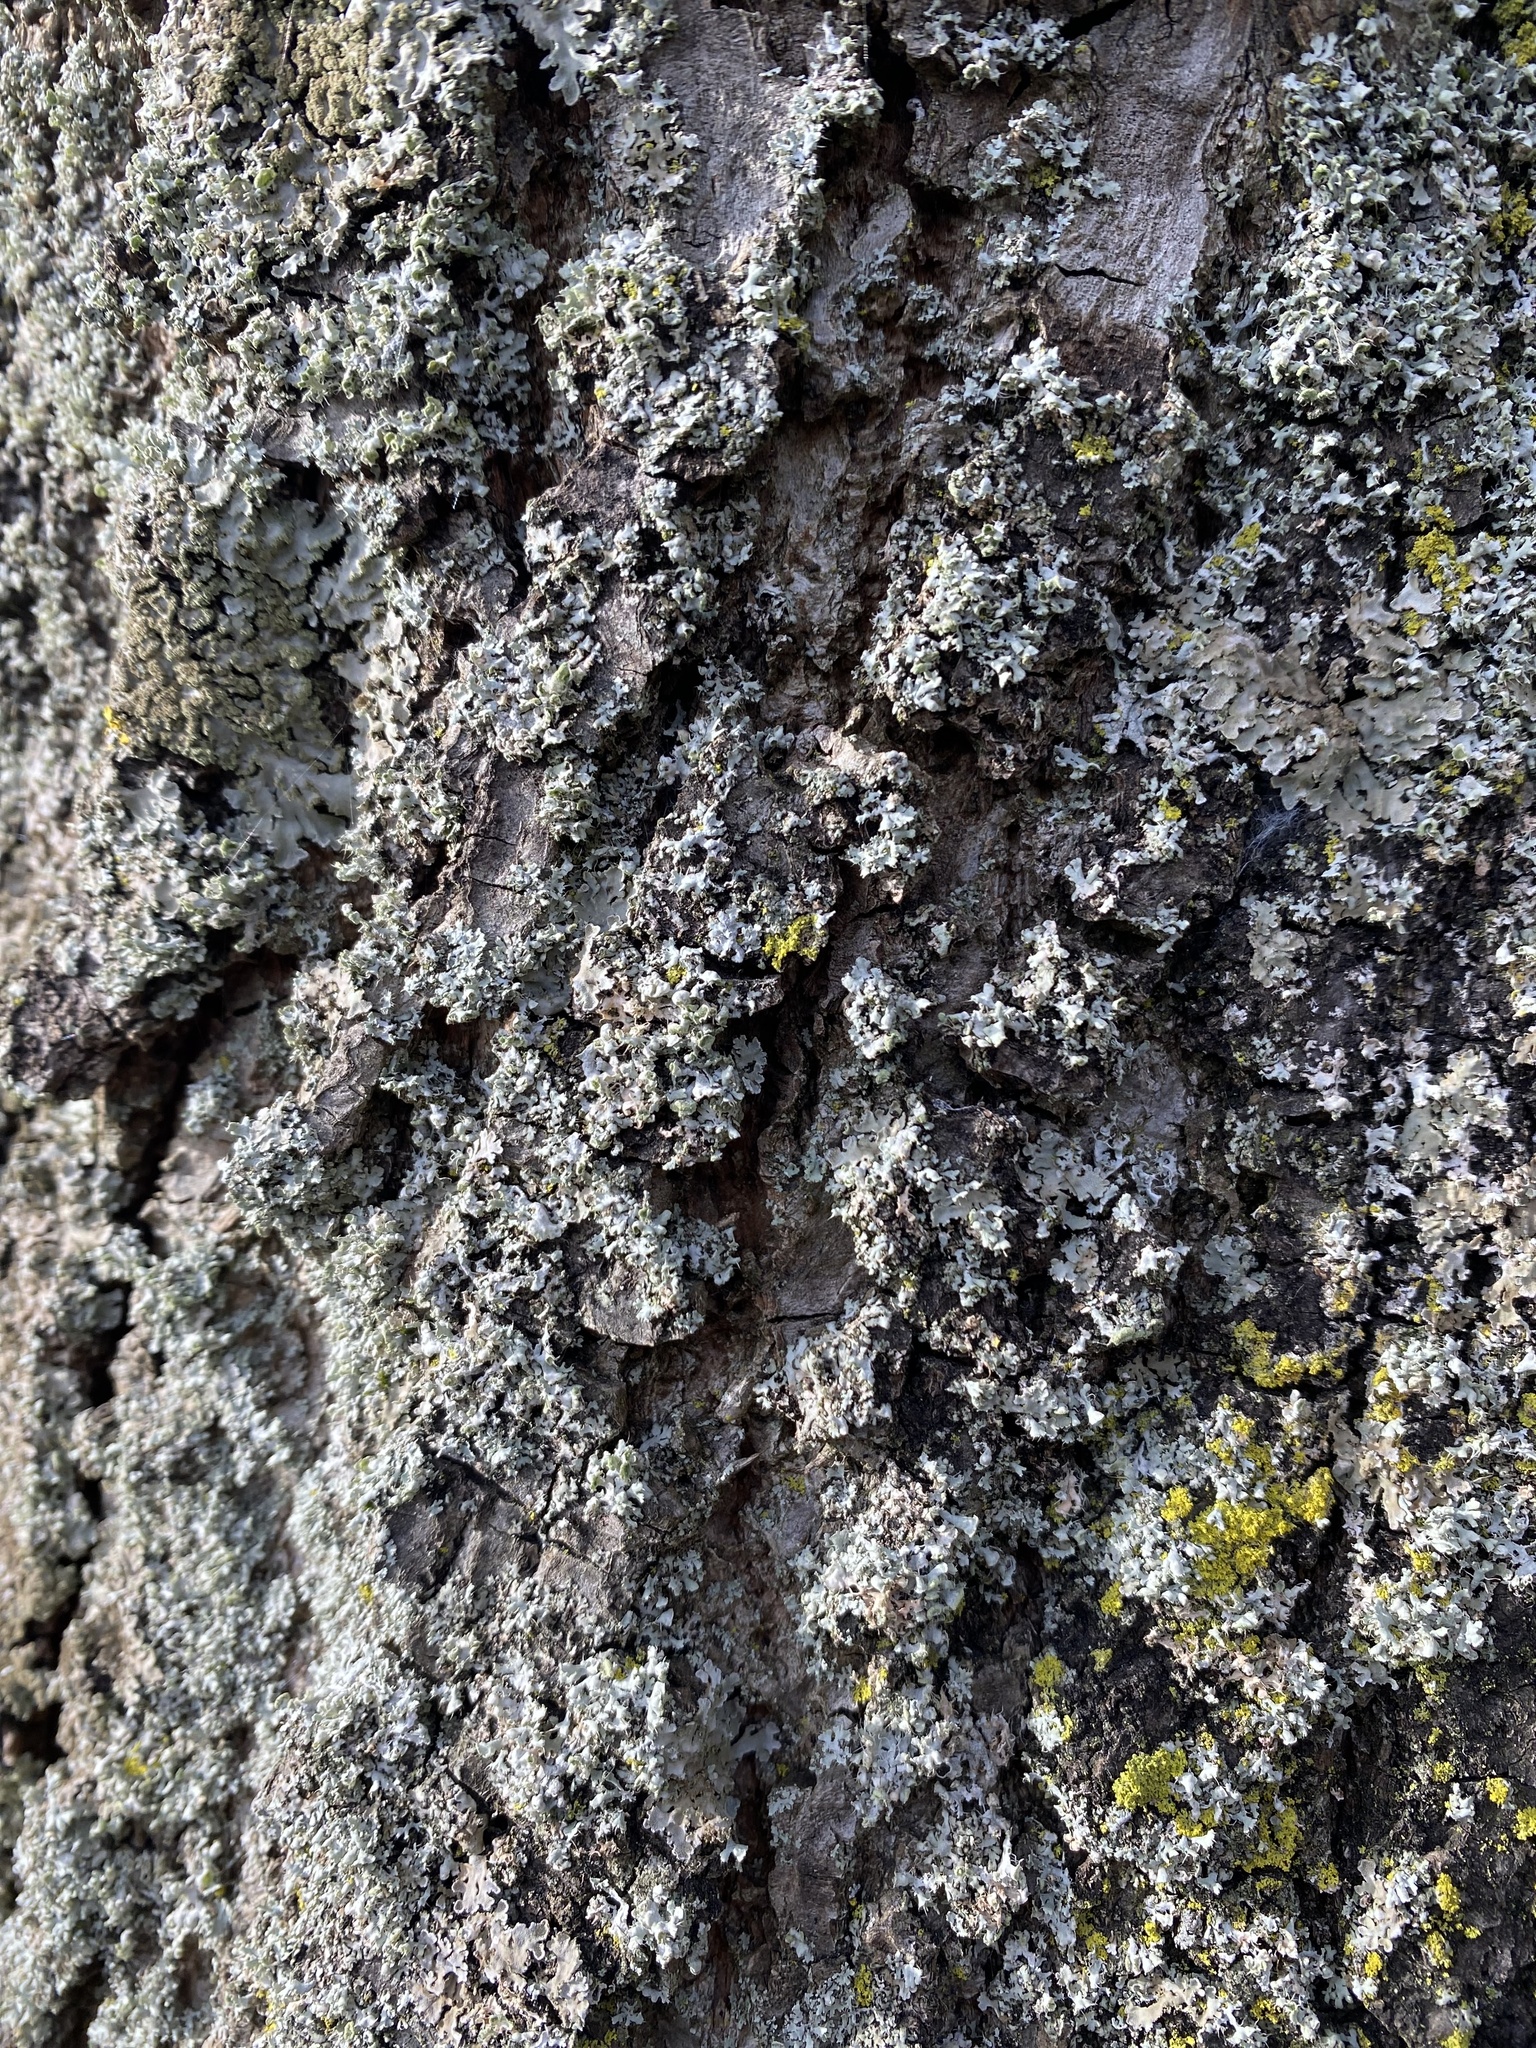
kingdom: Fungi
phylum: Ascomycota
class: Lecanoromycetes
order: Caliciales
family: Physciaceae
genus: Physcia
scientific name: Physcia adscendens
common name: Hooded rosette lichen
